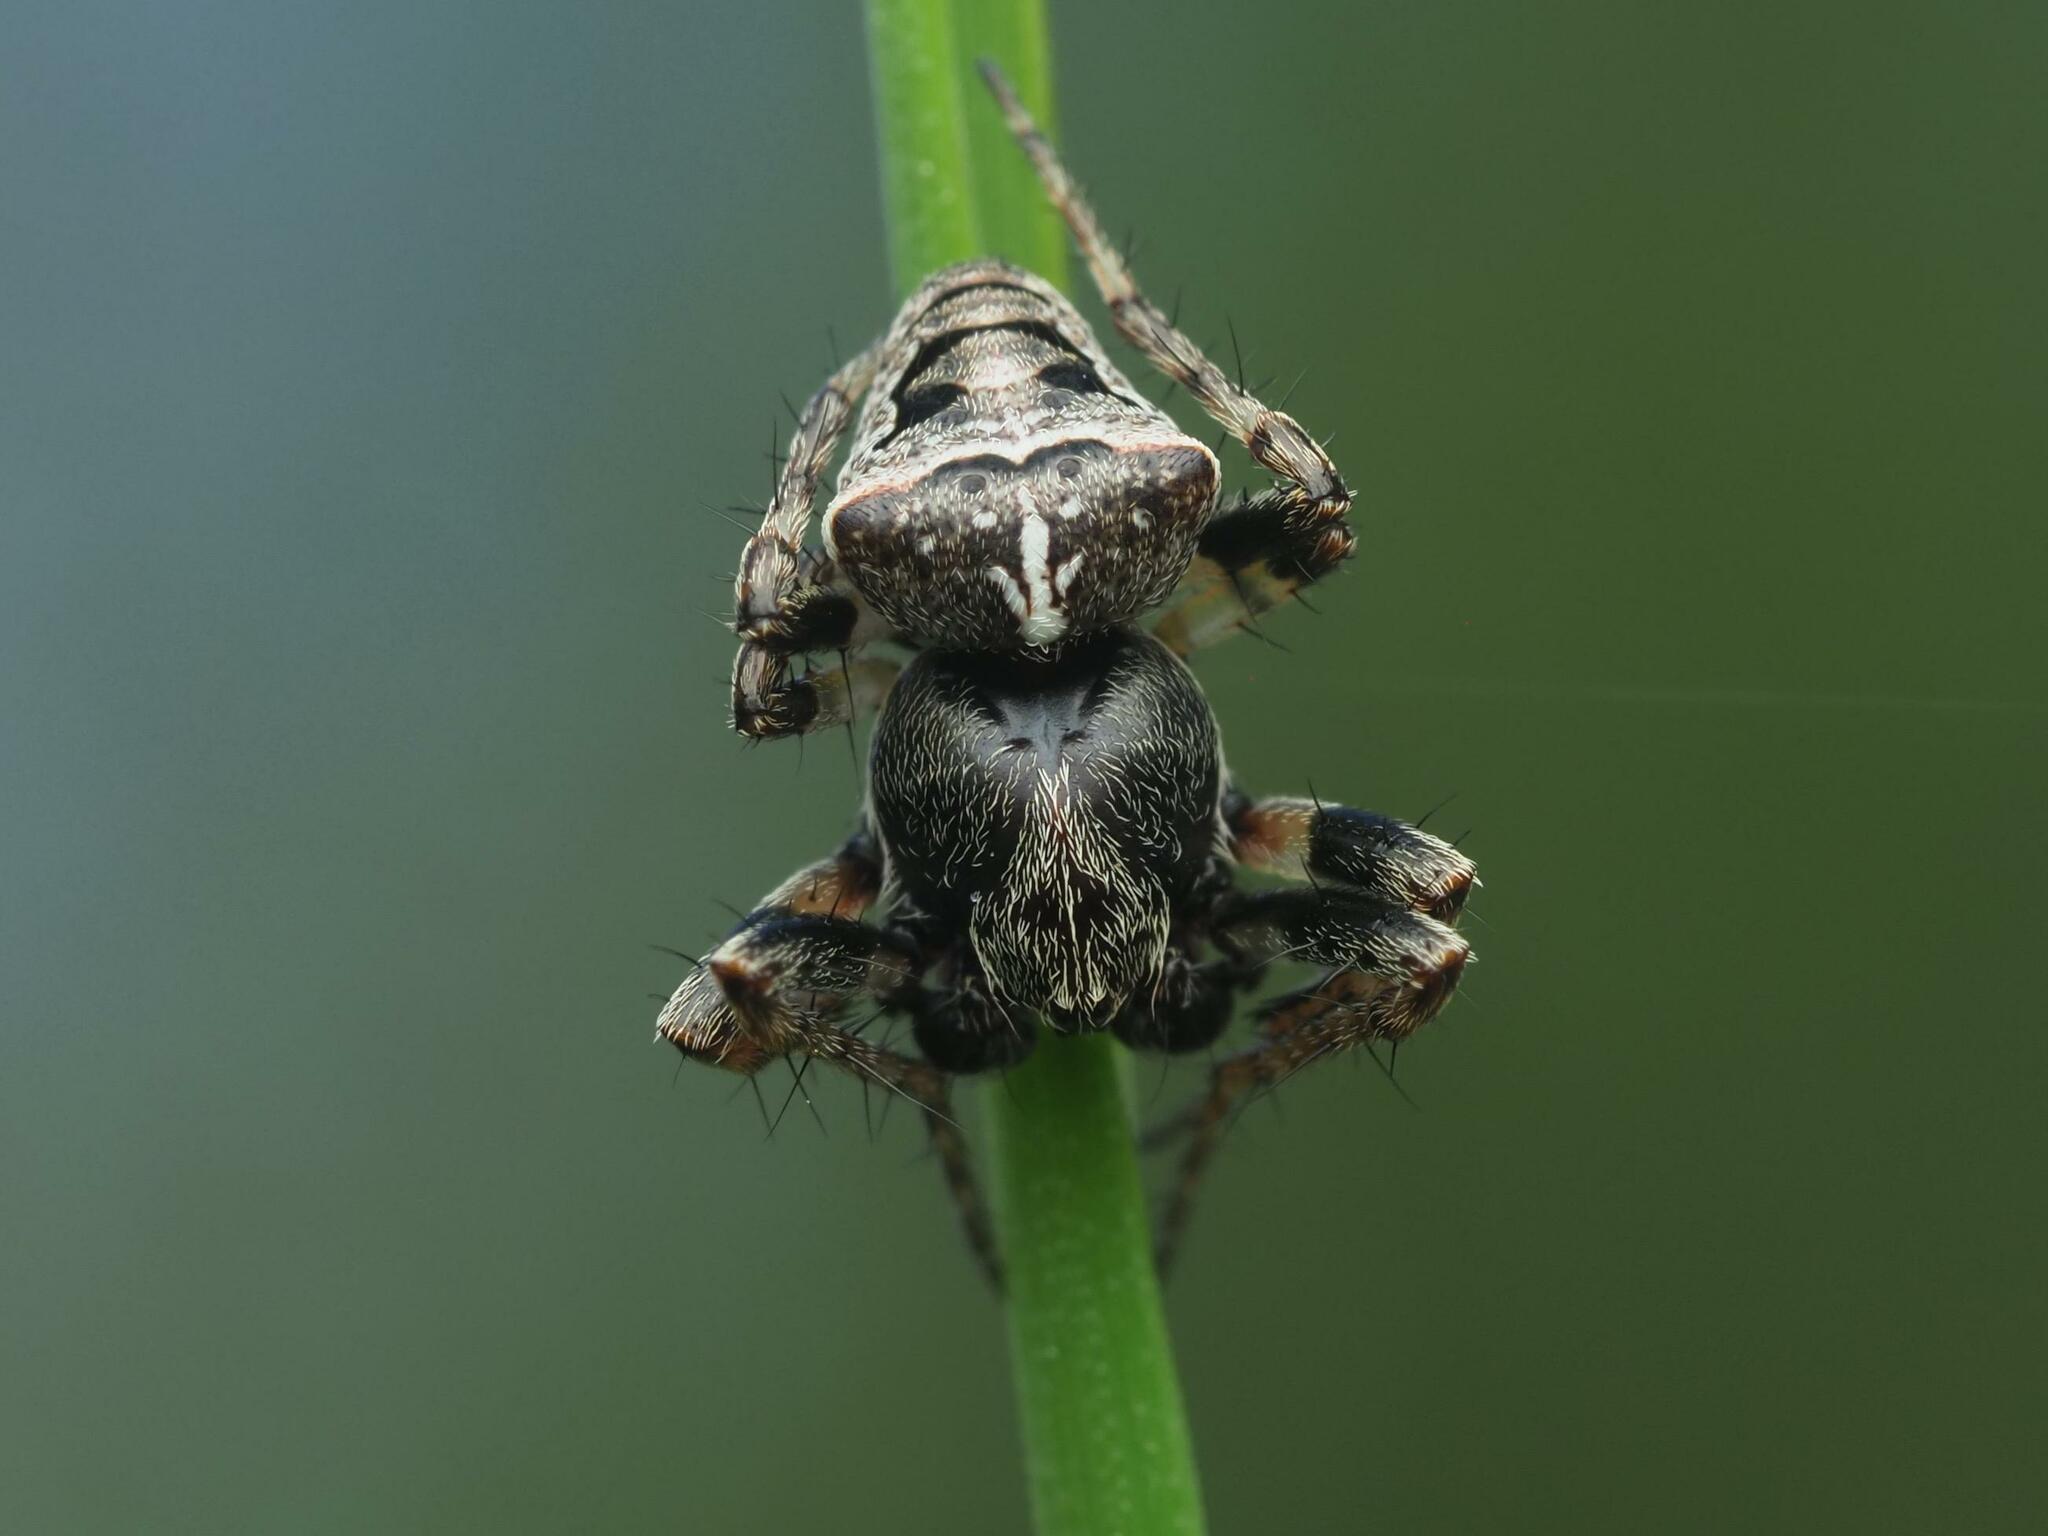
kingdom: Animalia
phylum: Arthropoda
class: Arachnida
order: Araneae
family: Araneidae
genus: Gibbaranea
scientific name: Gibbaranea bituberculata
